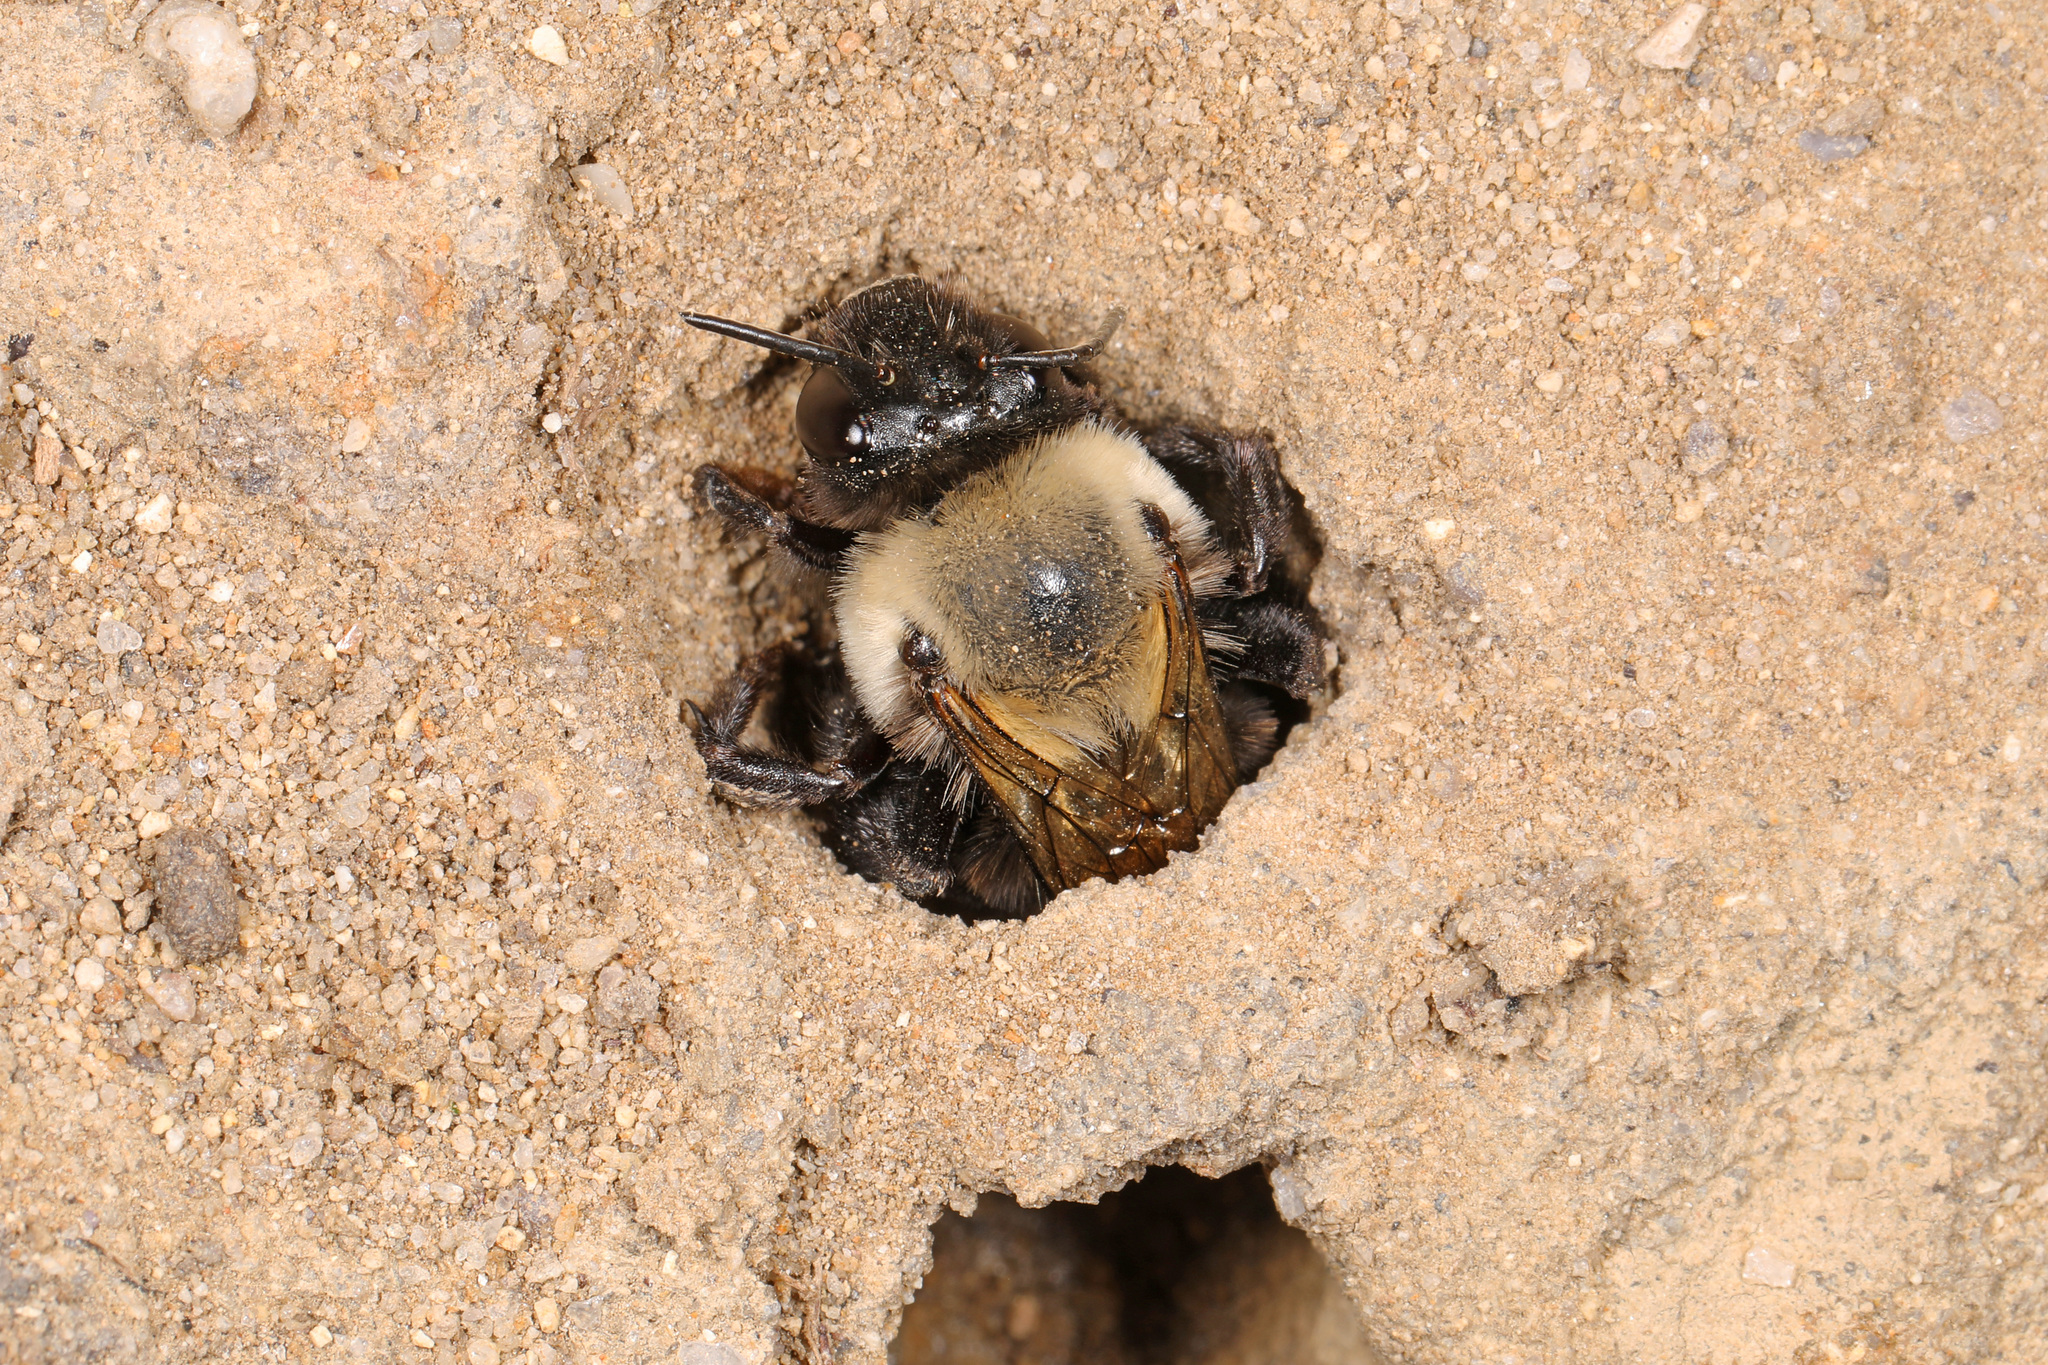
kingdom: Animalia
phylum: Arthropoda
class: Insecta
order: Hymenoptera
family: Apidae
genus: Anthophora
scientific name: Anthophora abrupta
